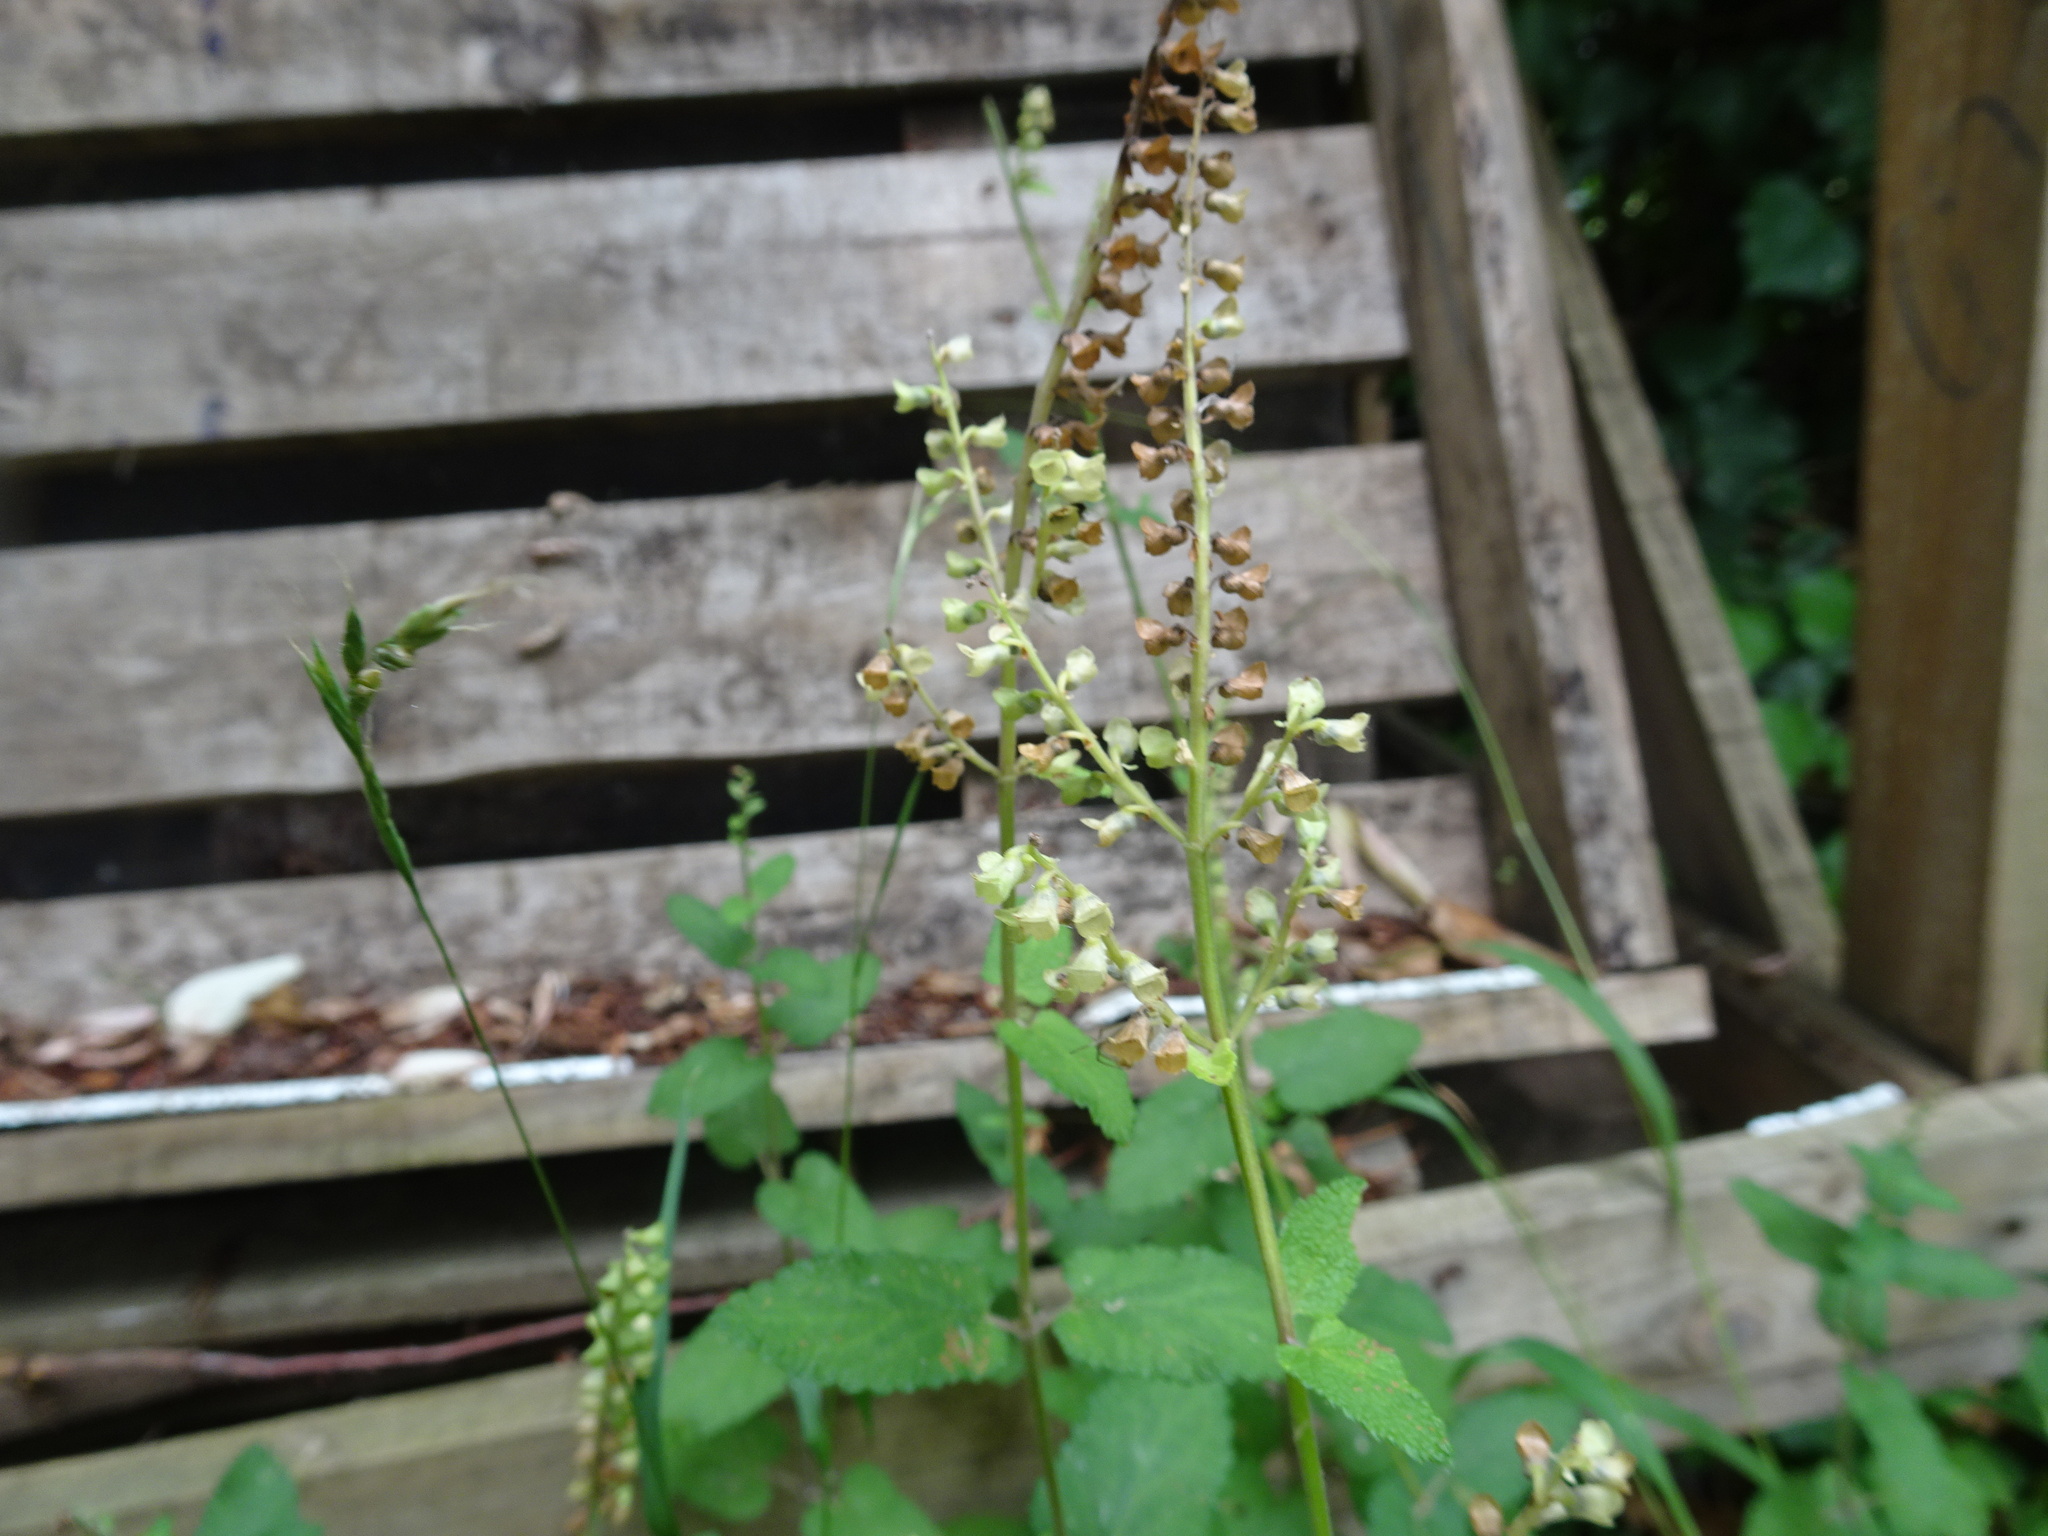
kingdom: Plantae
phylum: Tracheophyta
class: Magnoliopsida
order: Lamiales
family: Lamiaceae
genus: Teucrium
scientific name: Teucrium scorodonia
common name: Woodland germander
